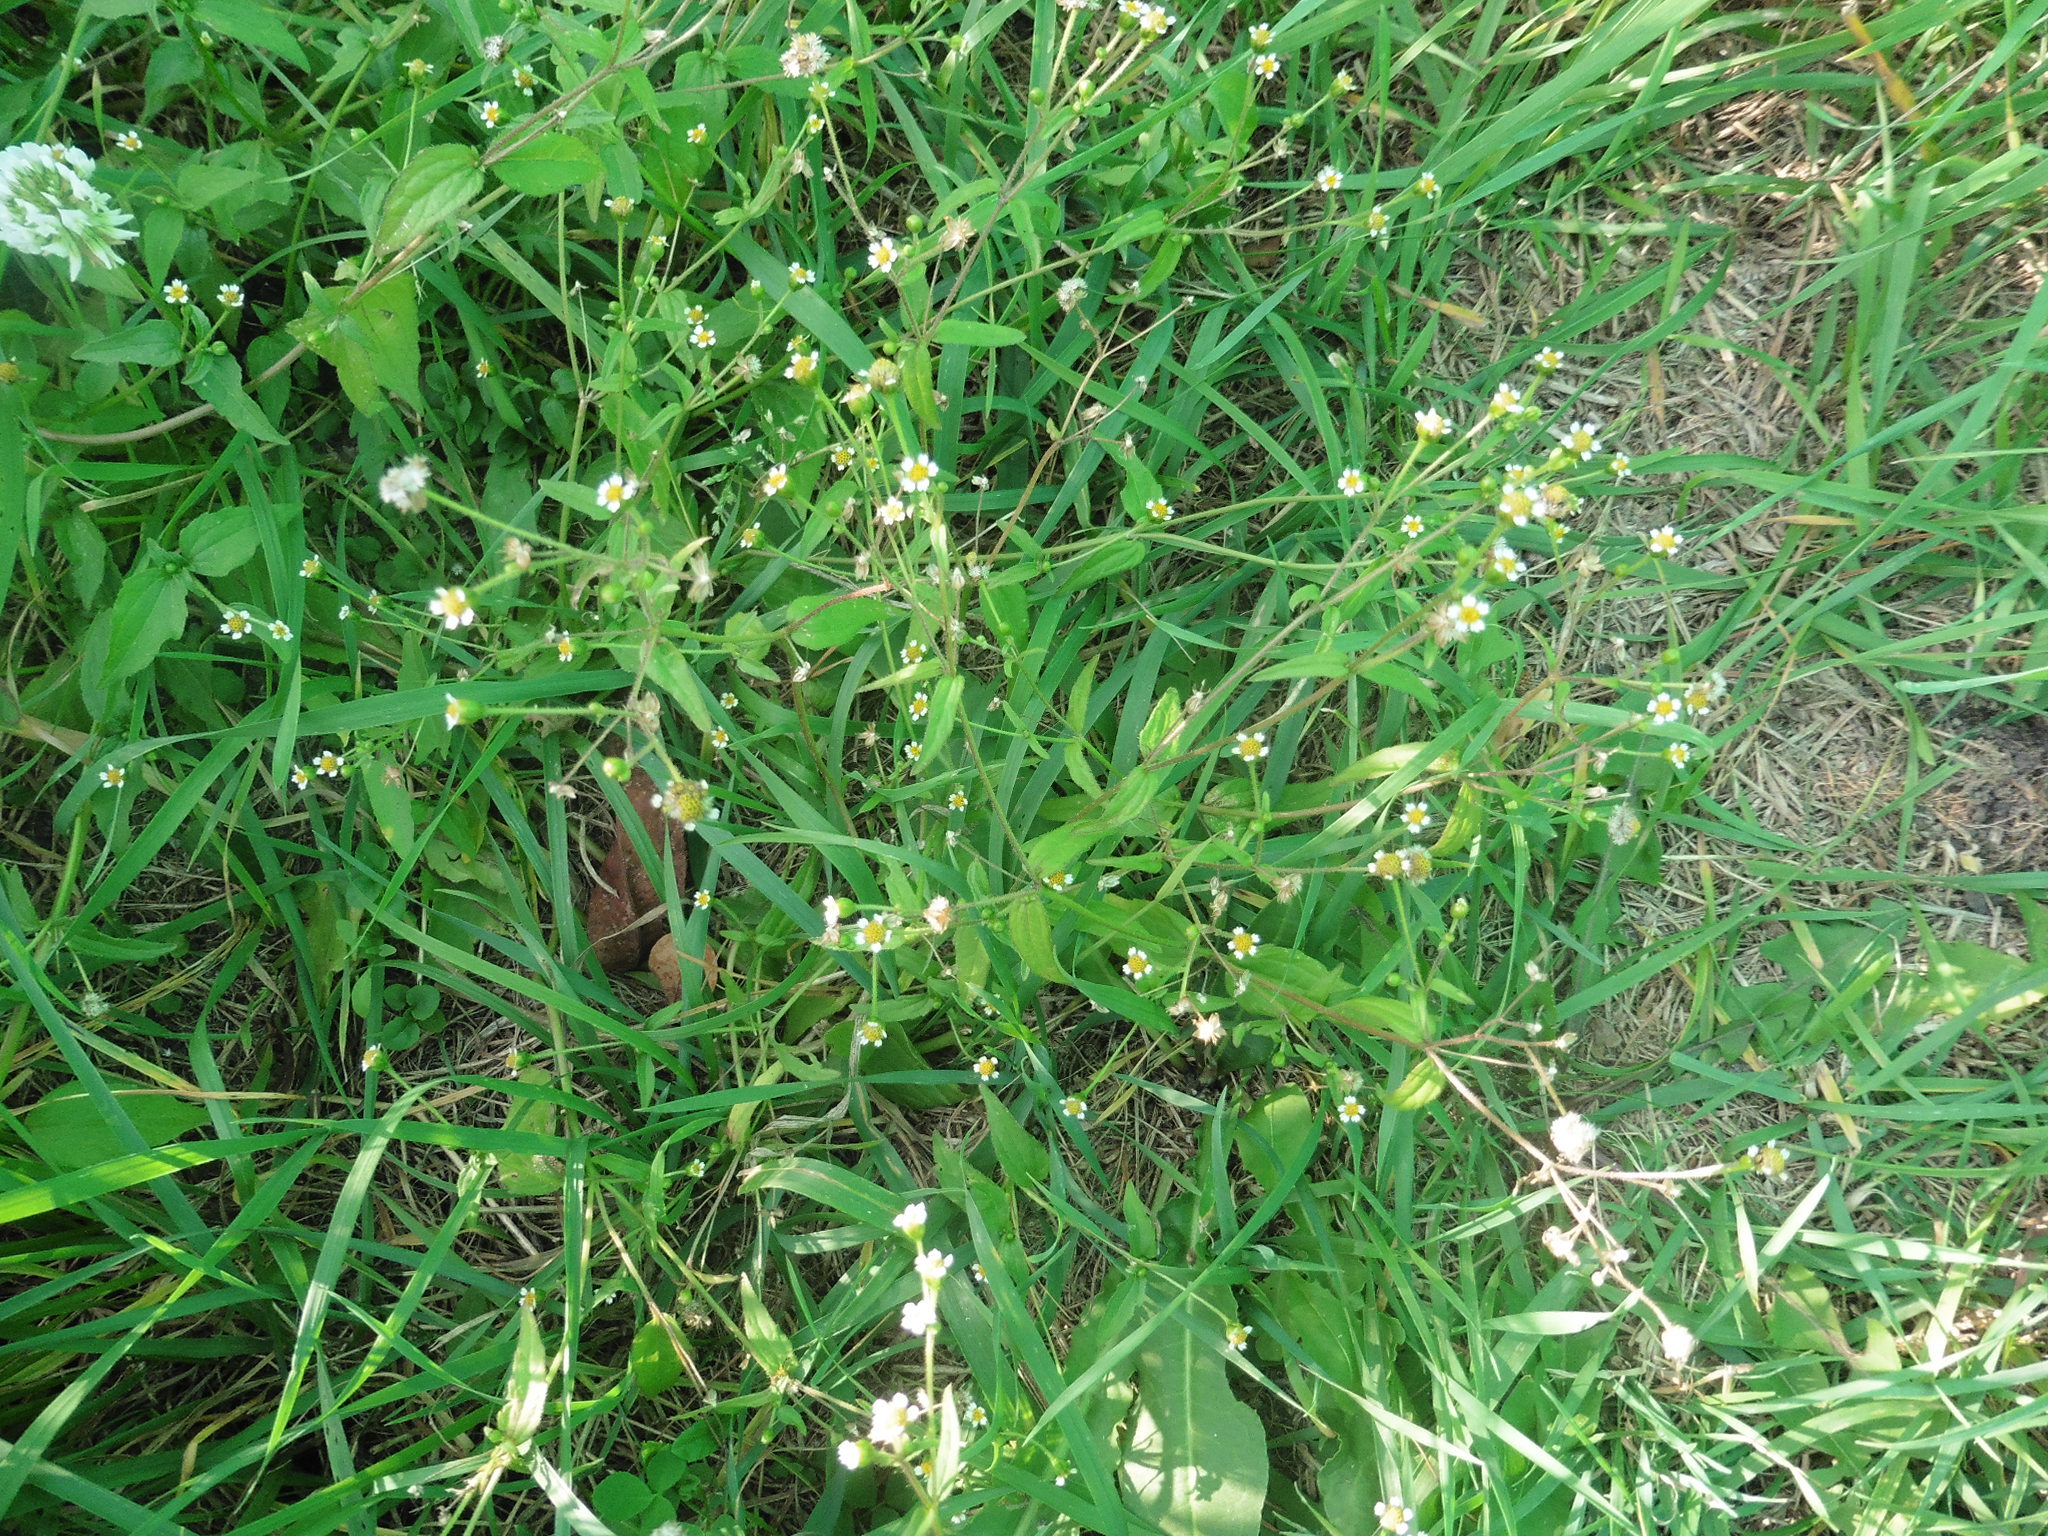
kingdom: Plantae
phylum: Tracheophyta
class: Magnoliopsida
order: Asterales
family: Asteraceae
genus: Galinsoga
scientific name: Galinsoga parviflora
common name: Gallant soldier
